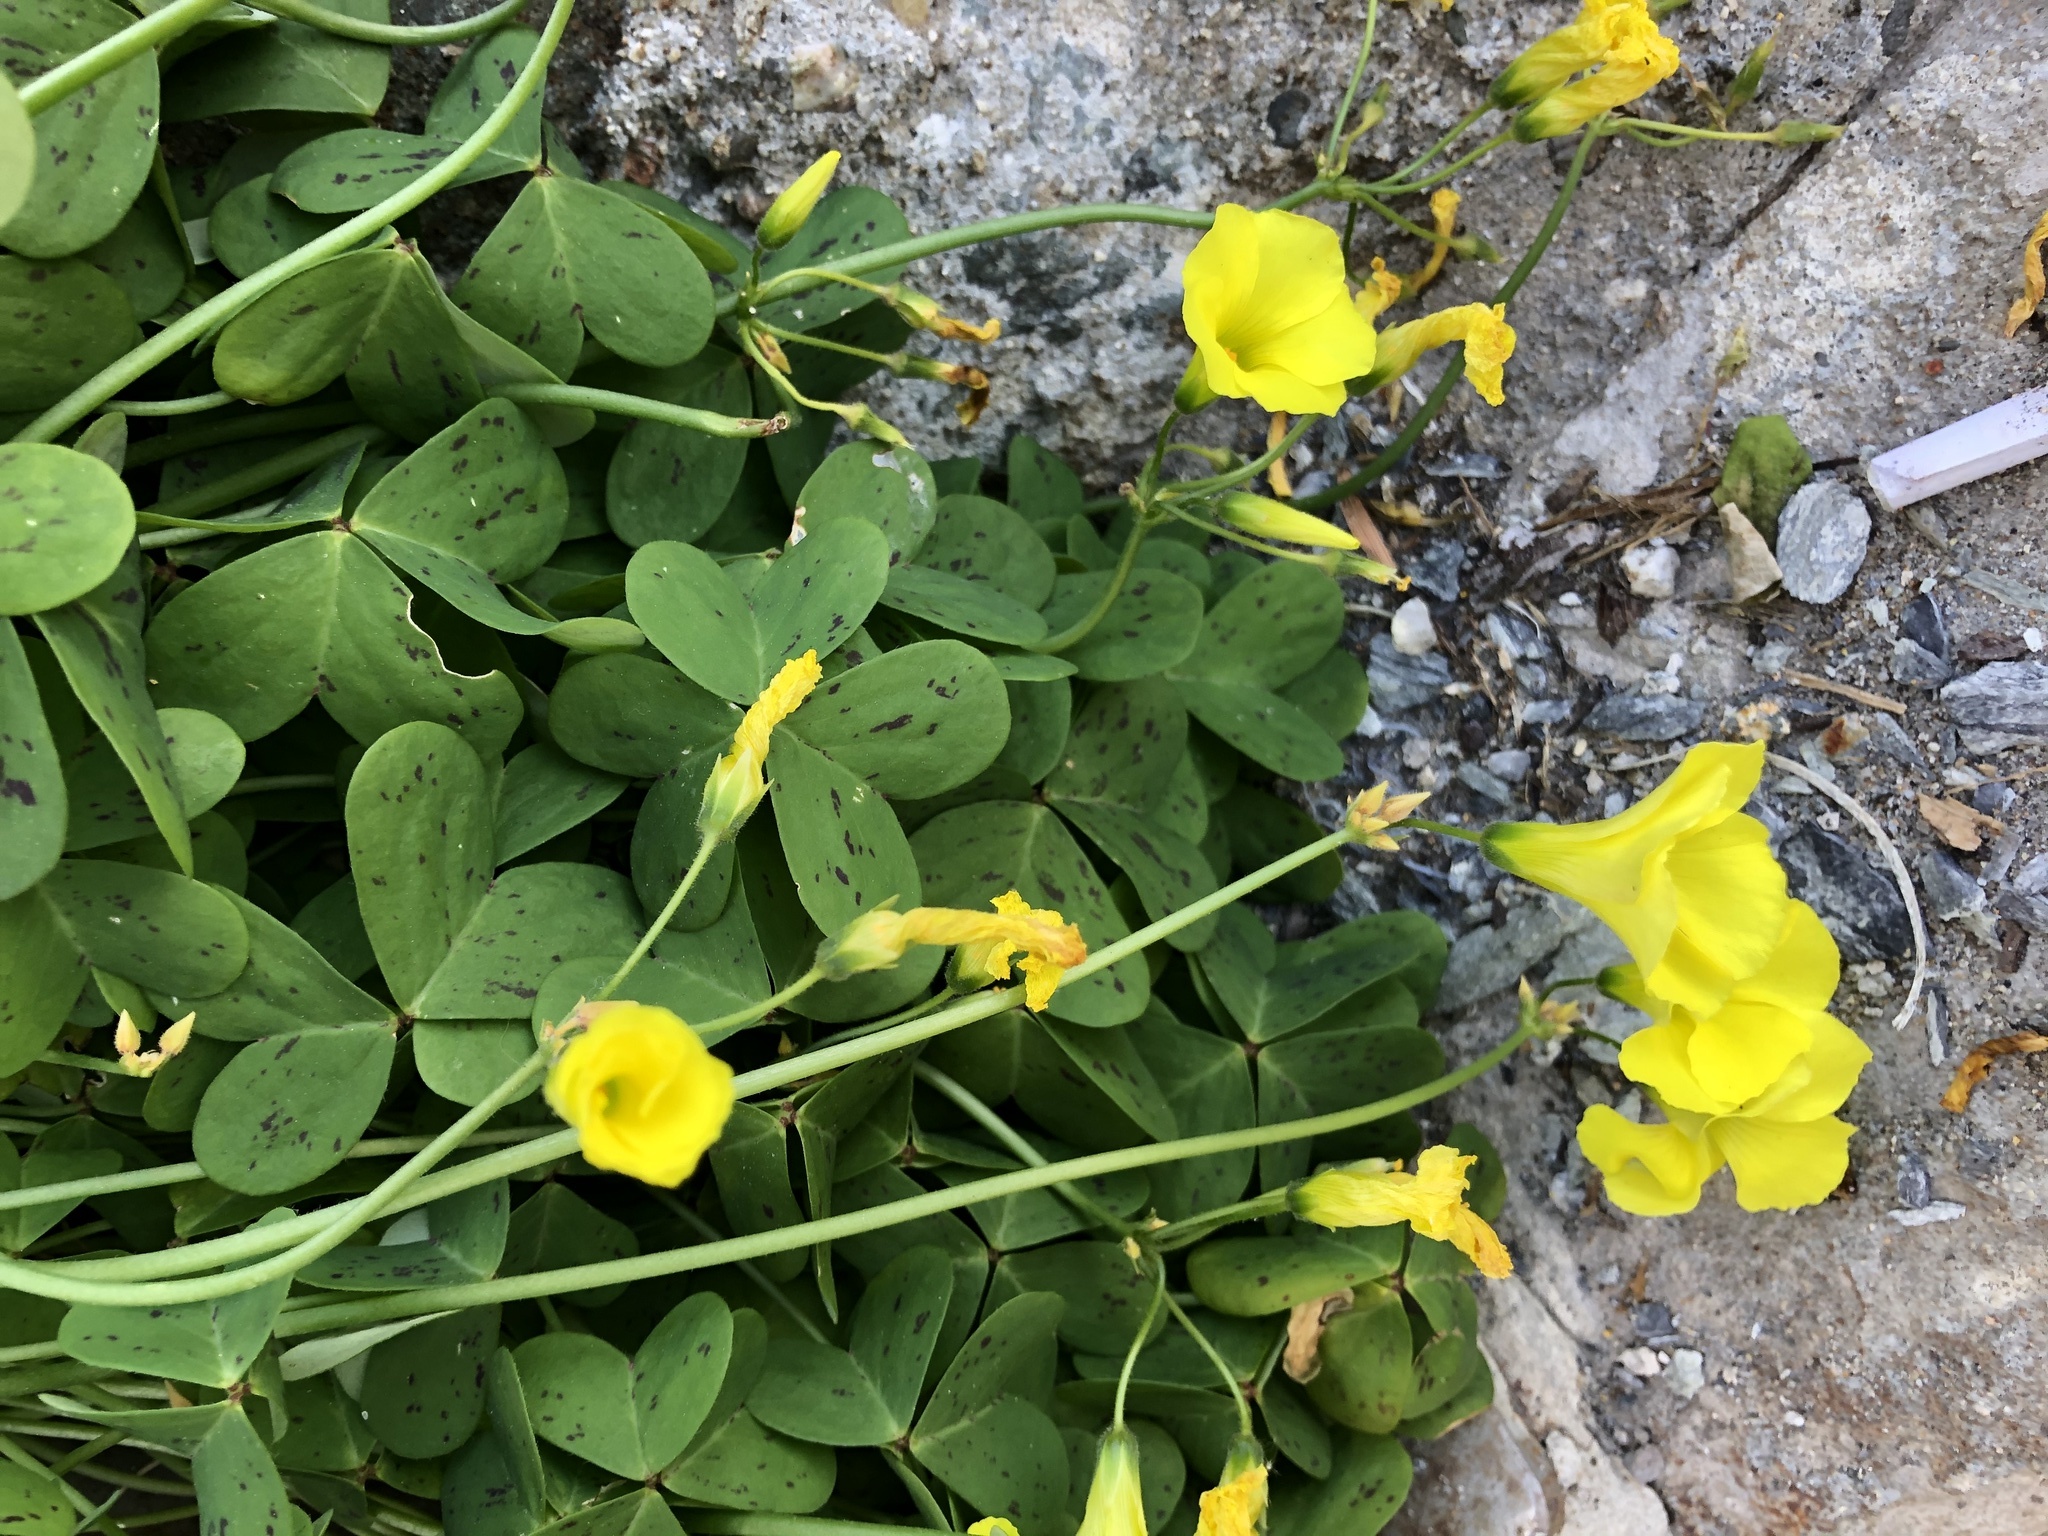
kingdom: Plantae
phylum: Tracheophyta
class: Magnoliopsida
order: Oxalidales
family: Oxalidaceae
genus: Oxalis
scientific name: Oxalis pes-caprae
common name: Bermuda-buttercup
